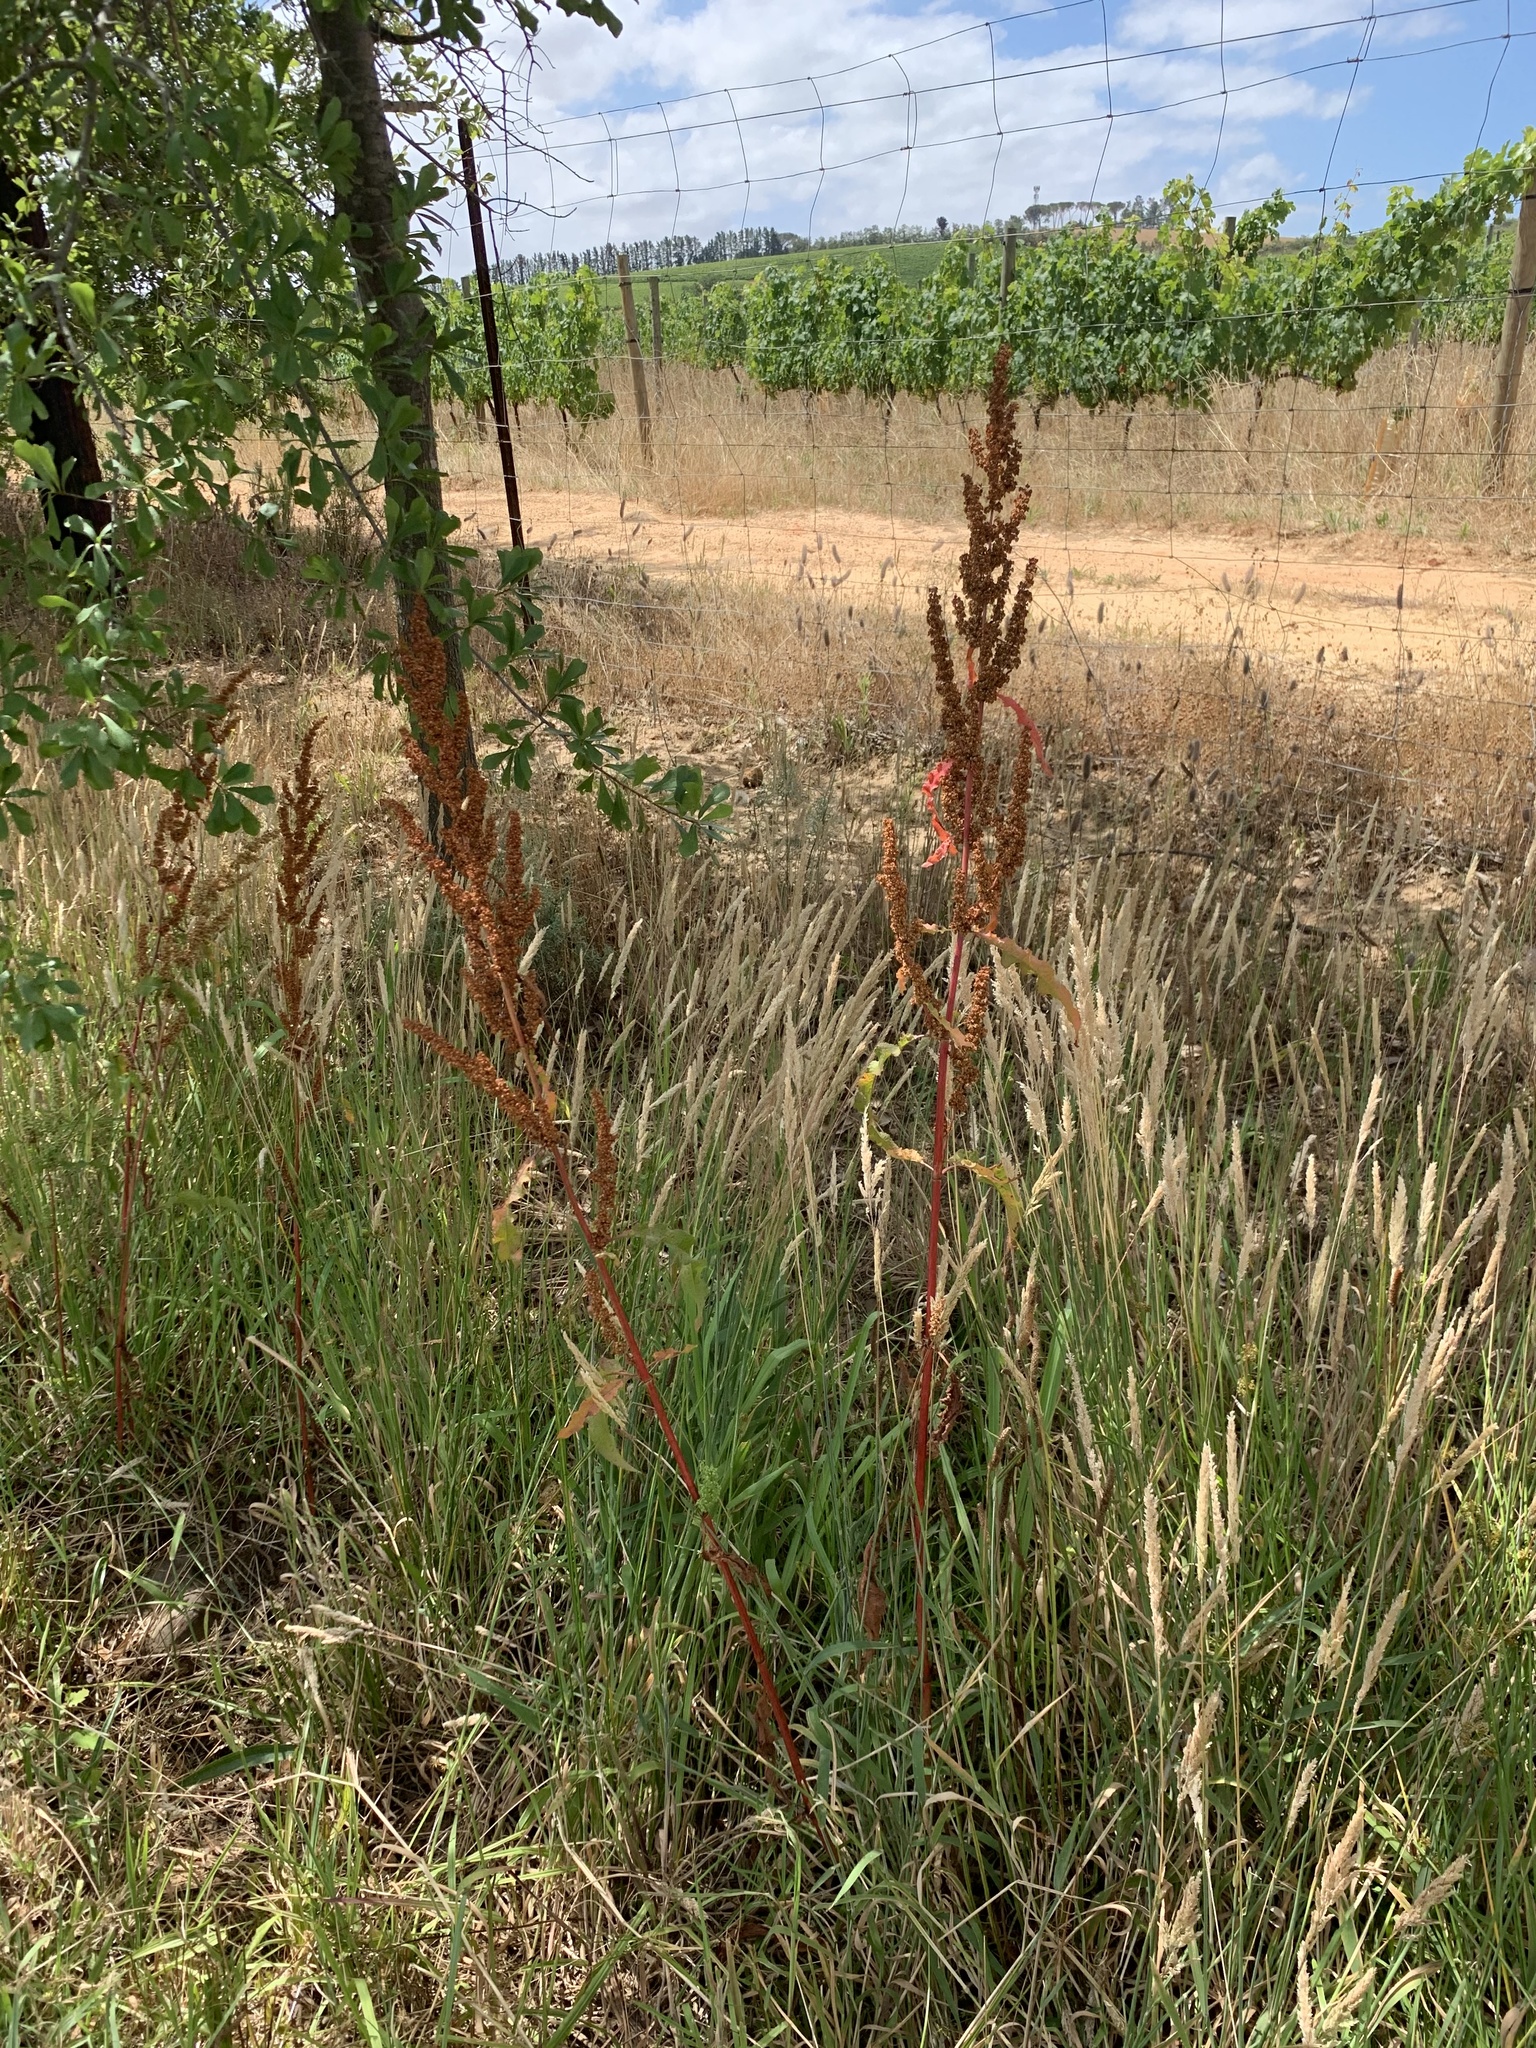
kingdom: Plantae
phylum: Tracheophyta
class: Magnoliopsida
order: Caryophyllales
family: Polygonaceae
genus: Rumex
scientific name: Rumex crispus
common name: Curled dock
